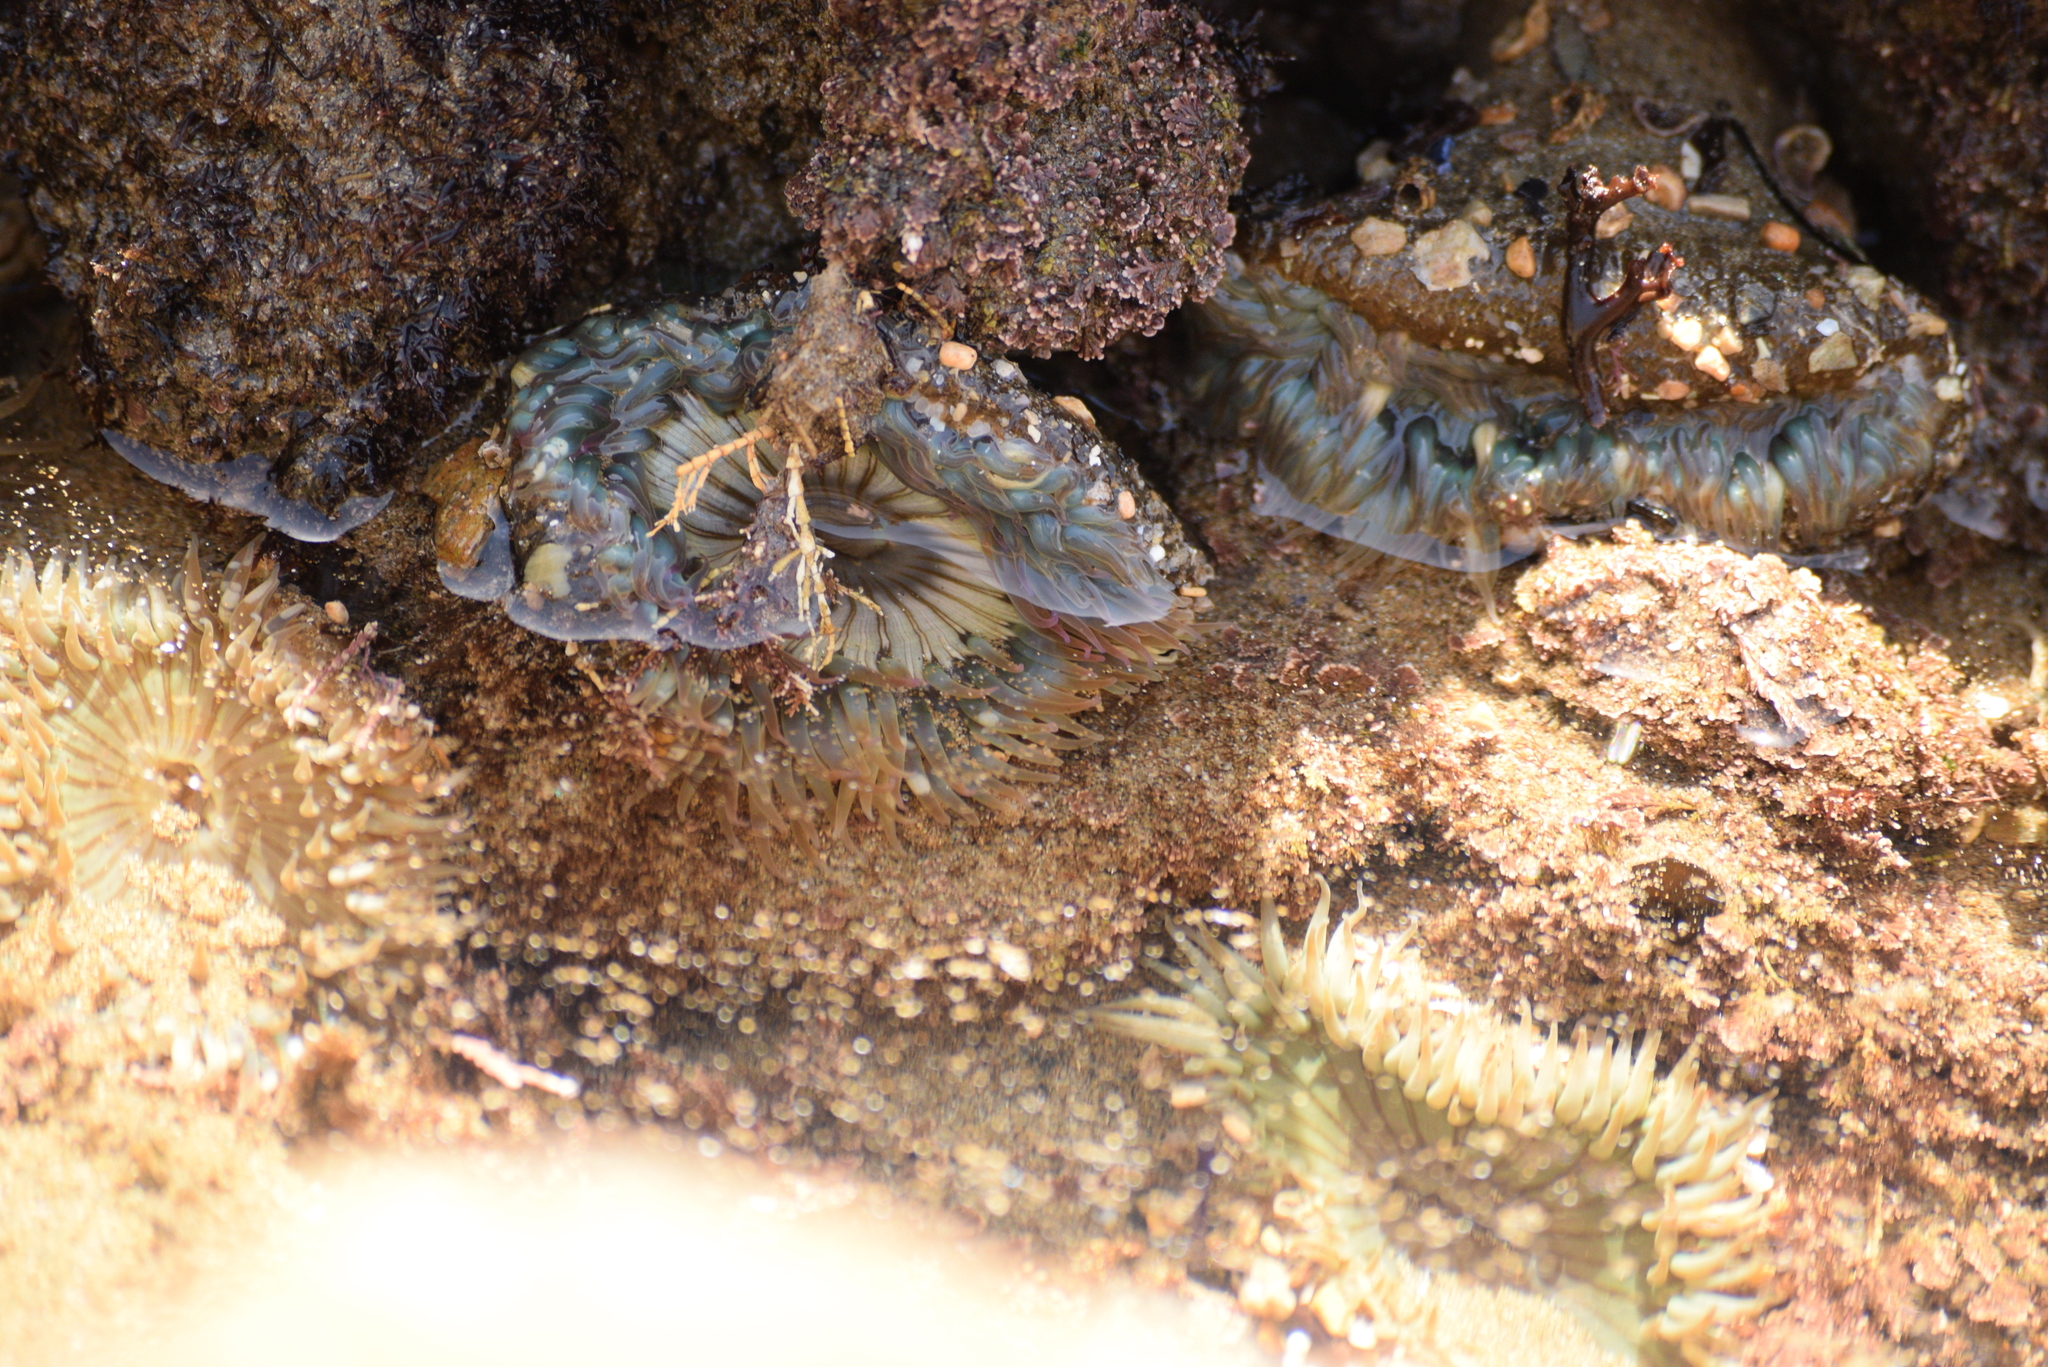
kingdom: Animalia
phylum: Cnidaria
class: Anthozoa
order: Actiniaria
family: Actiniidae
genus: Anthopleura
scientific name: Anthopleura sola
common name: Sun anemone
